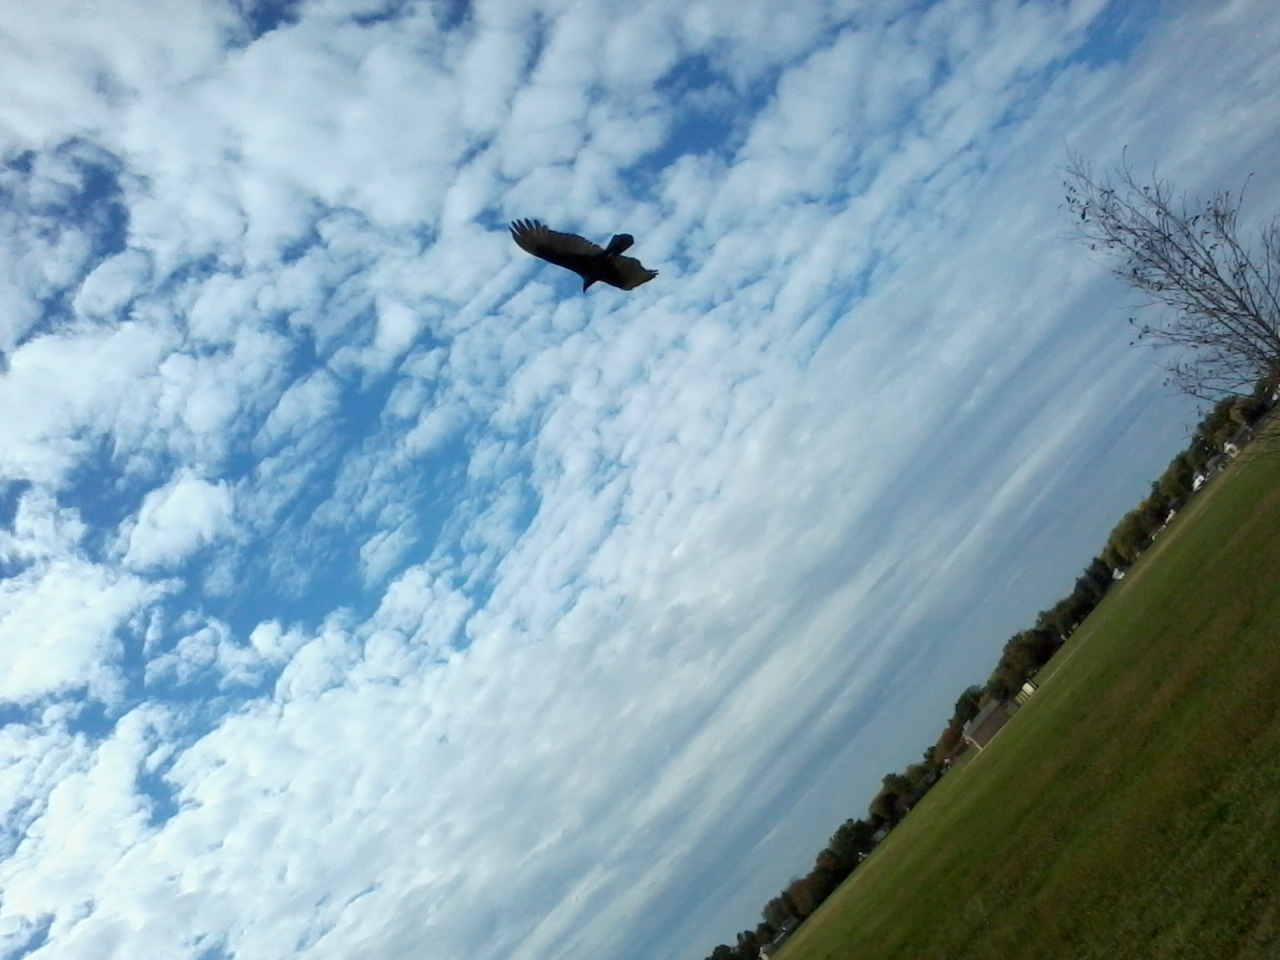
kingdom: Animalia
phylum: Chordata
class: Aves
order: Accipitriformes
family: Cathartidae
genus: Cathartes
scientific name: Cathartes aura
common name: Turkey vulture
